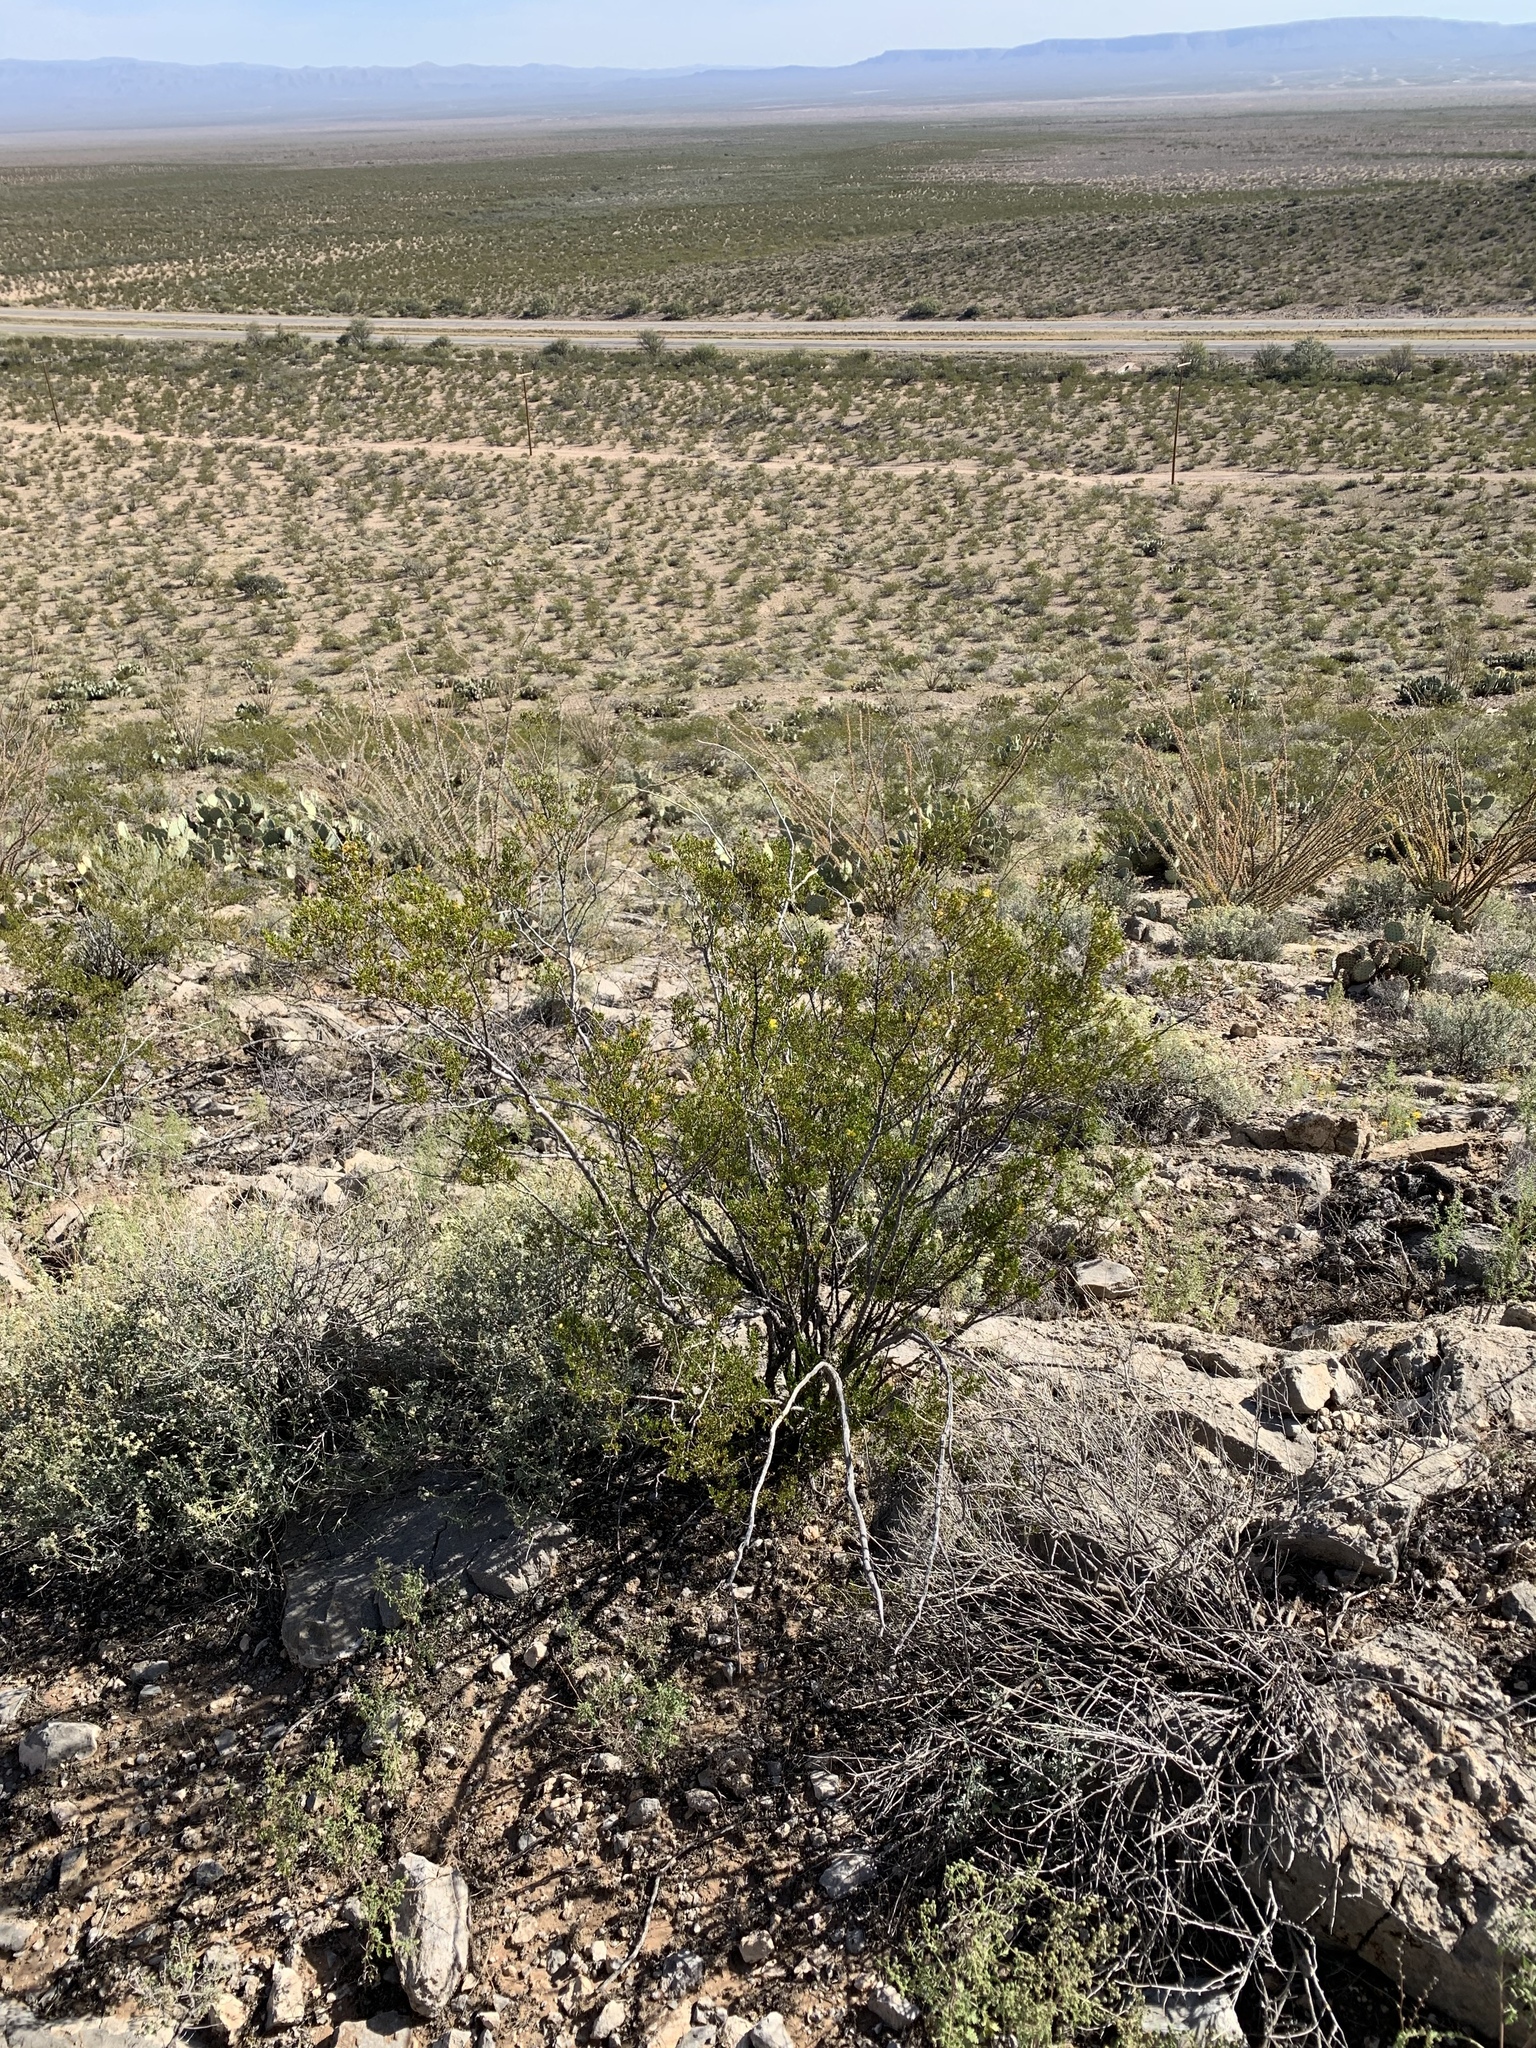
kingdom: Plantae
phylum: Tracheophyta
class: Magnoliopsida
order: Zygophyllales
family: Zygophyllaceae
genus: Larrea
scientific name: Larrea tridentata
